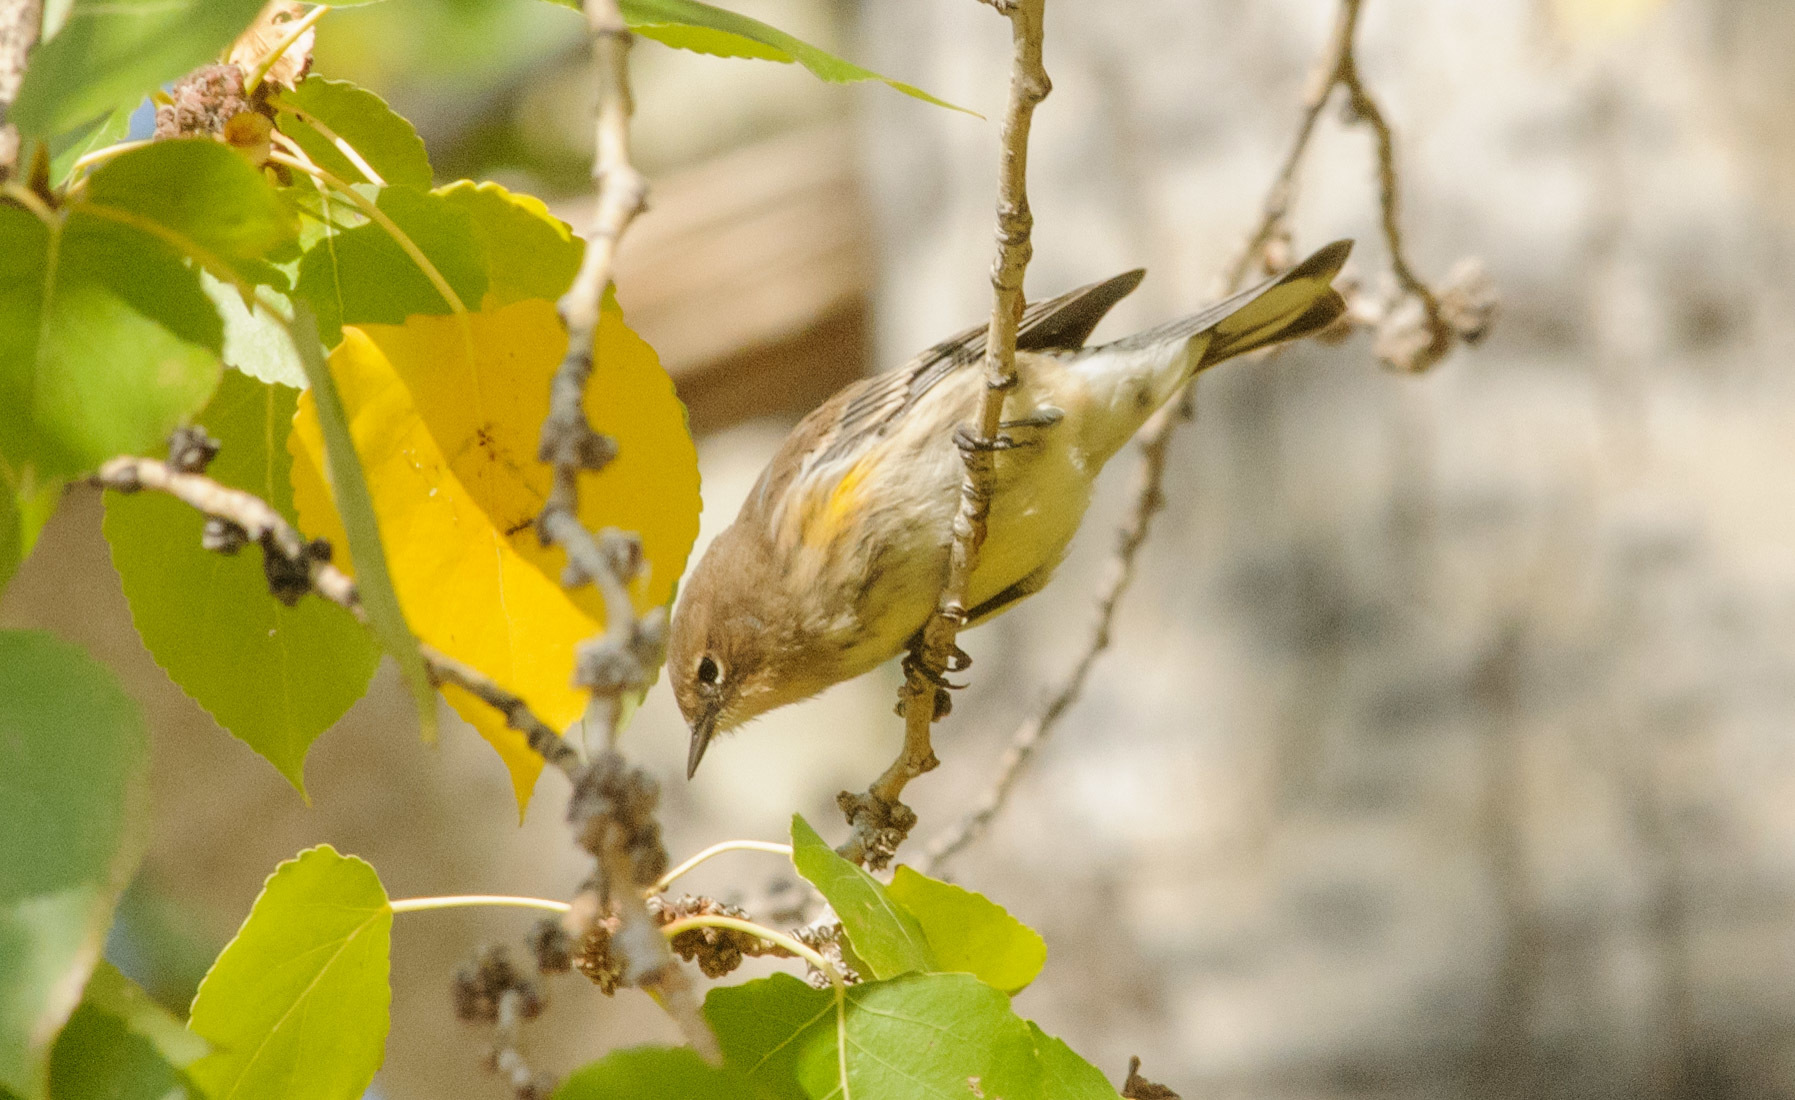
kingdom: Animalia
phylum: Chordata
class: Aves
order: Passeriformes
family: Parulidae
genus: Setophaga
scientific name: Setophaga coronata
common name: Myrtle warbler
